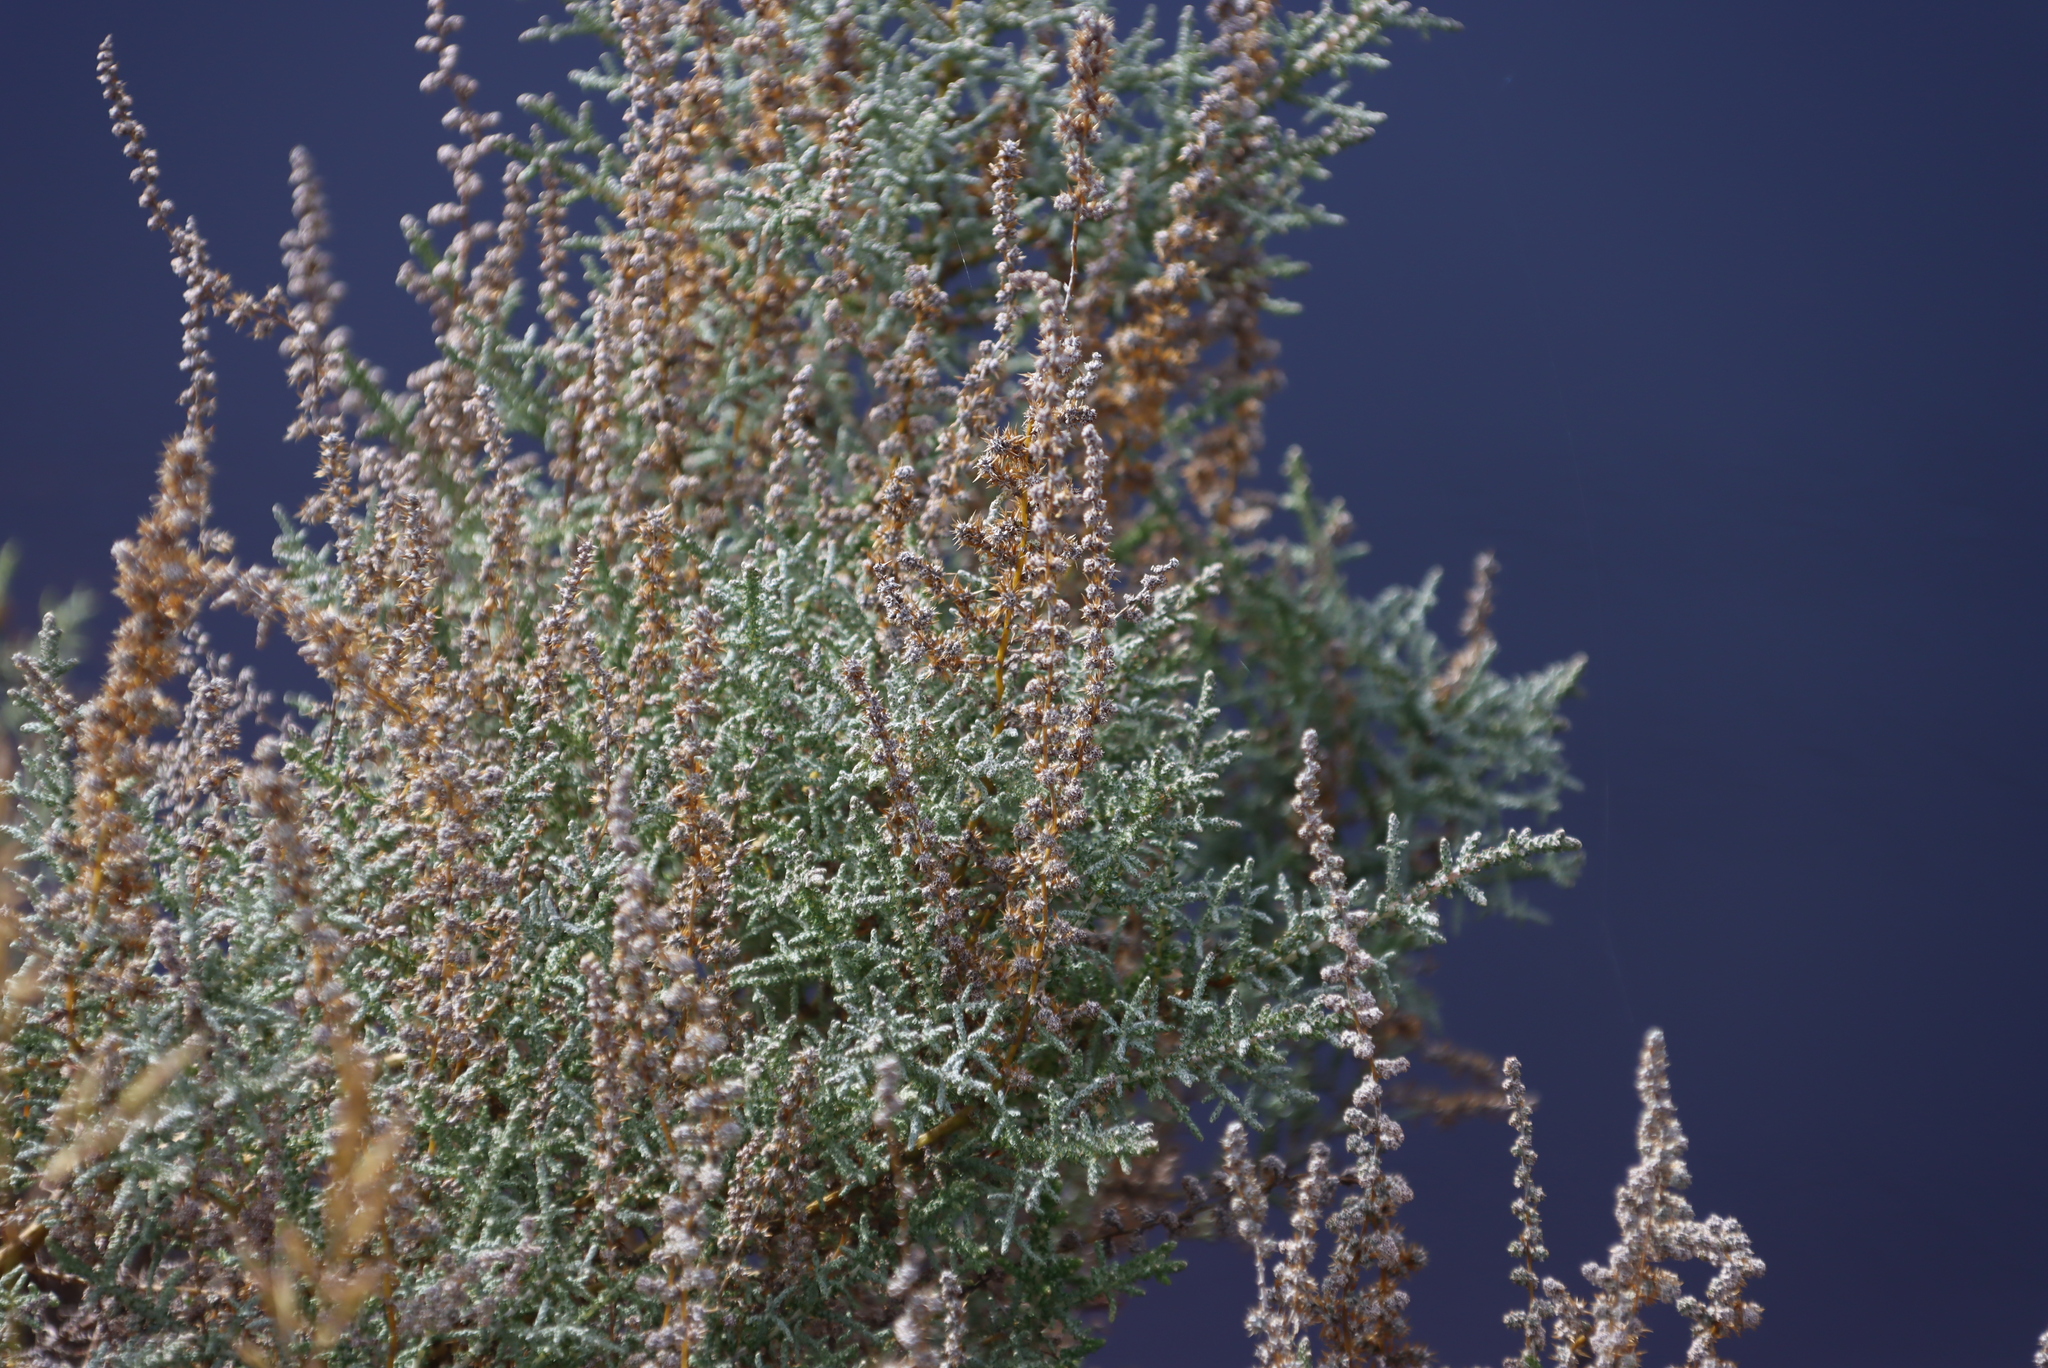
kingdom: Plantae
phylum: Tracheophyta
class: Magnoliopsida
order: Asterales
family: Asteraceae
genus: Seriphium
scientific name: Seriphium plumosum
